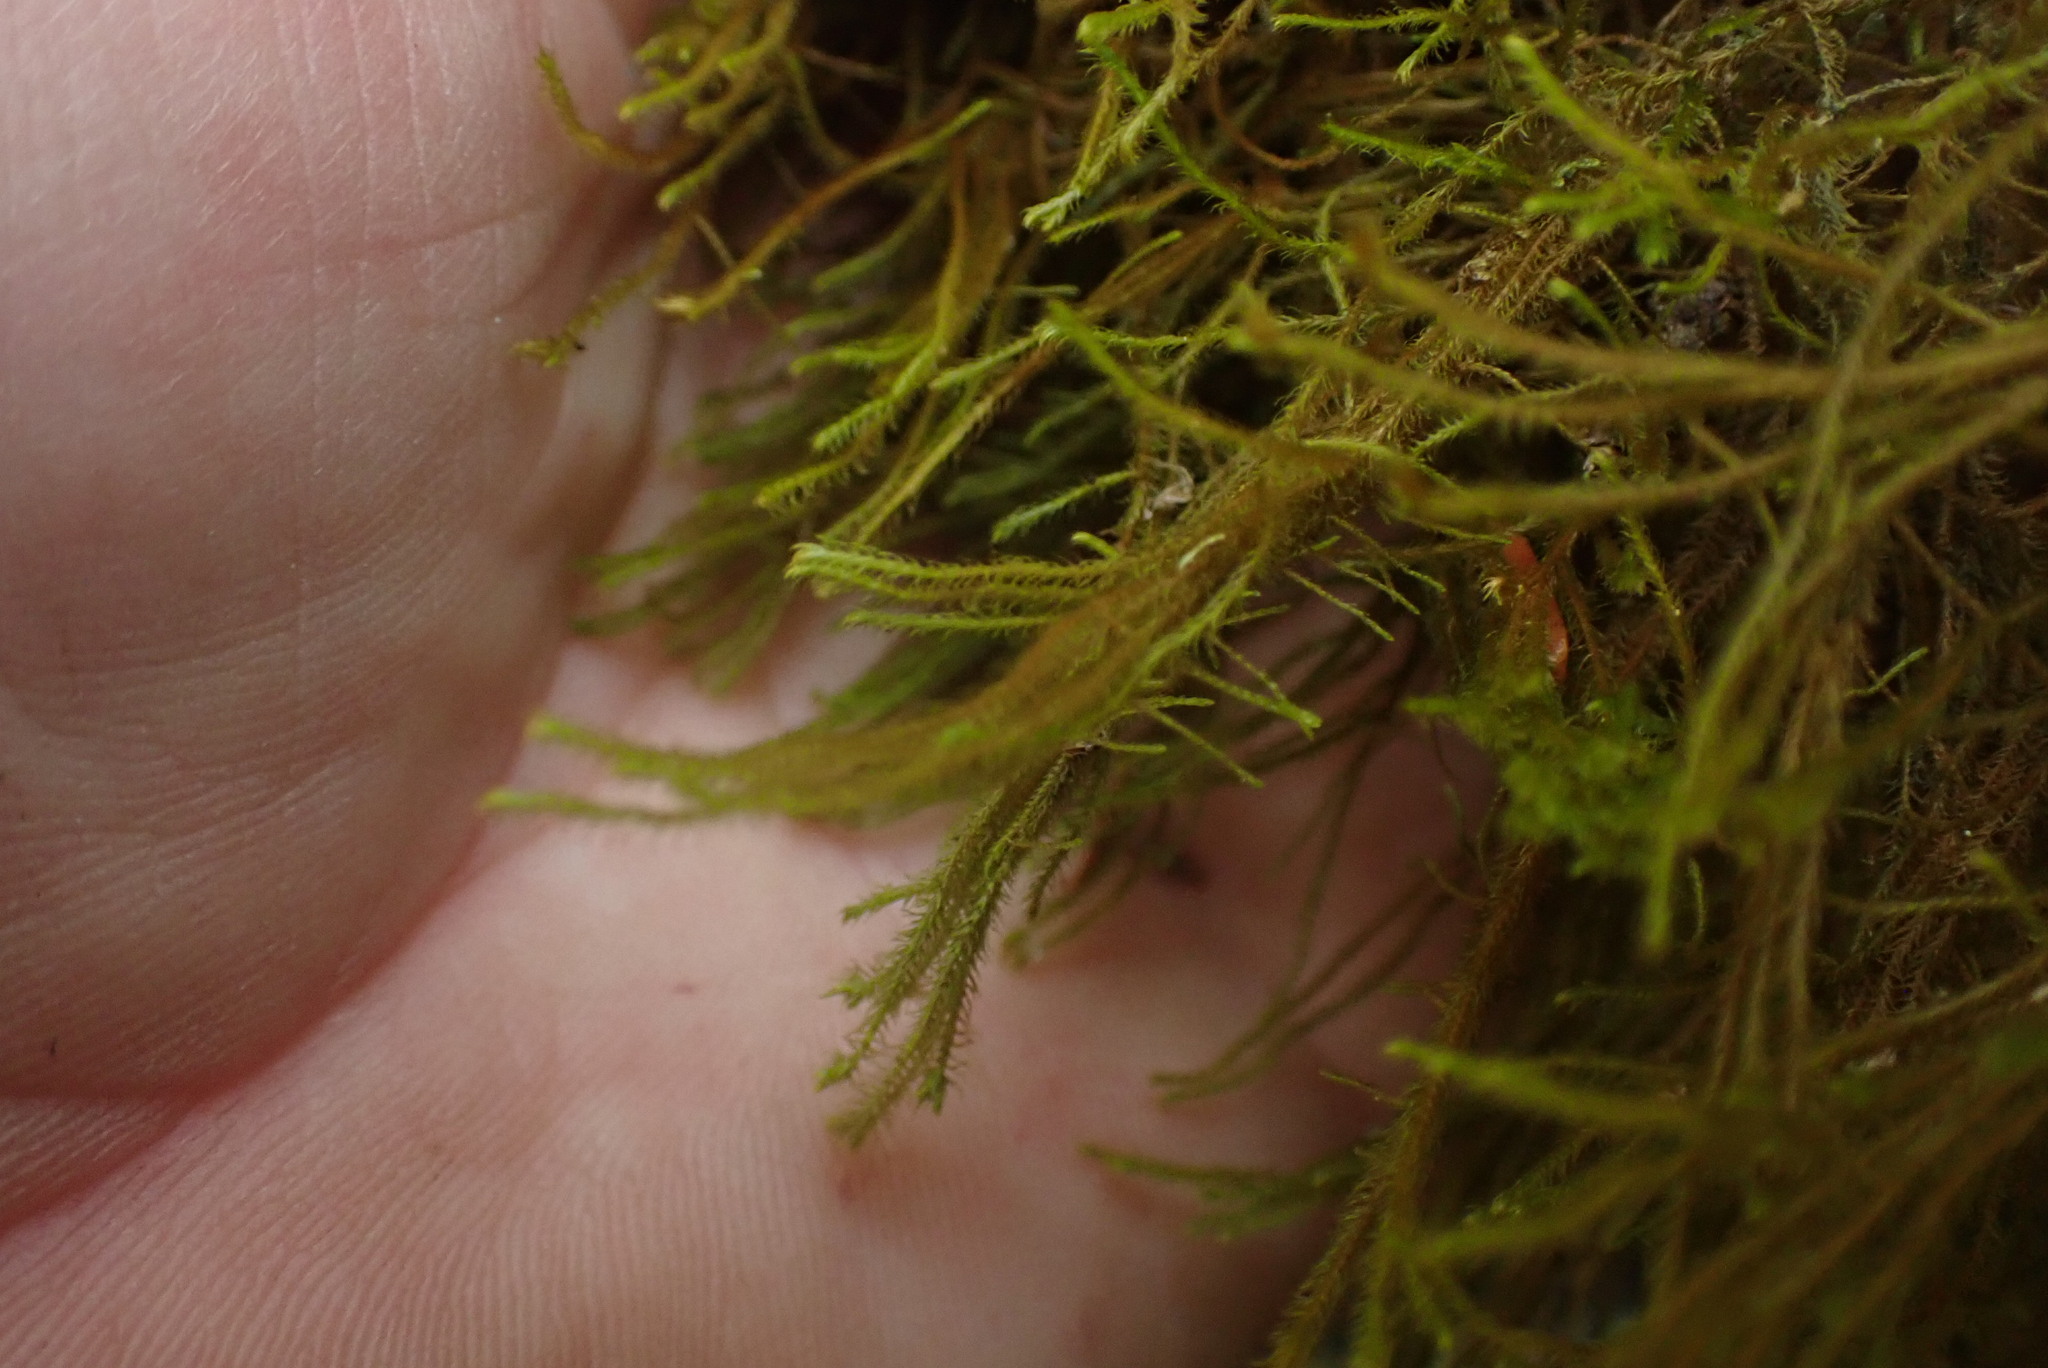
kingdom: Plantae
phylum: Marchantiophyta
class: Jungermanniopsida
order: Jungermanniales
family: Herbertaceae
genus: Herbertus
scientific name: Herbertus aduncus
